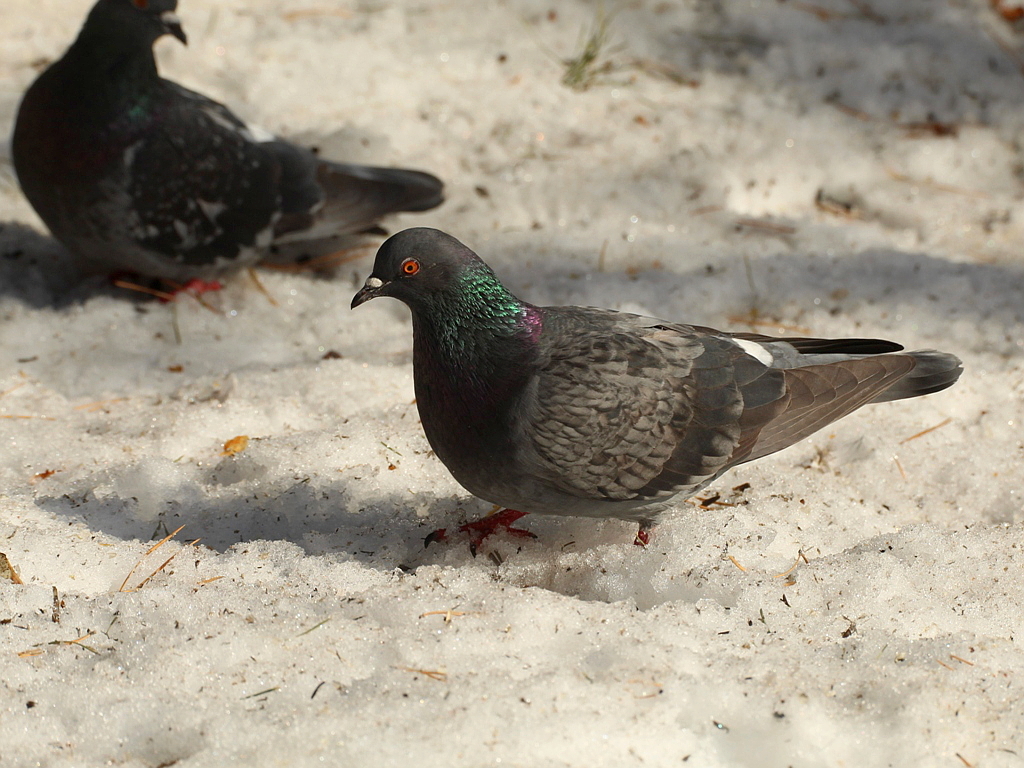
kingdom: Animalia
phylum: Chordata
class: Aves
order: Columbiformes
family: Columbidae
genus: Columba
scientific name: Columba livia
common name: Rock pigeon
